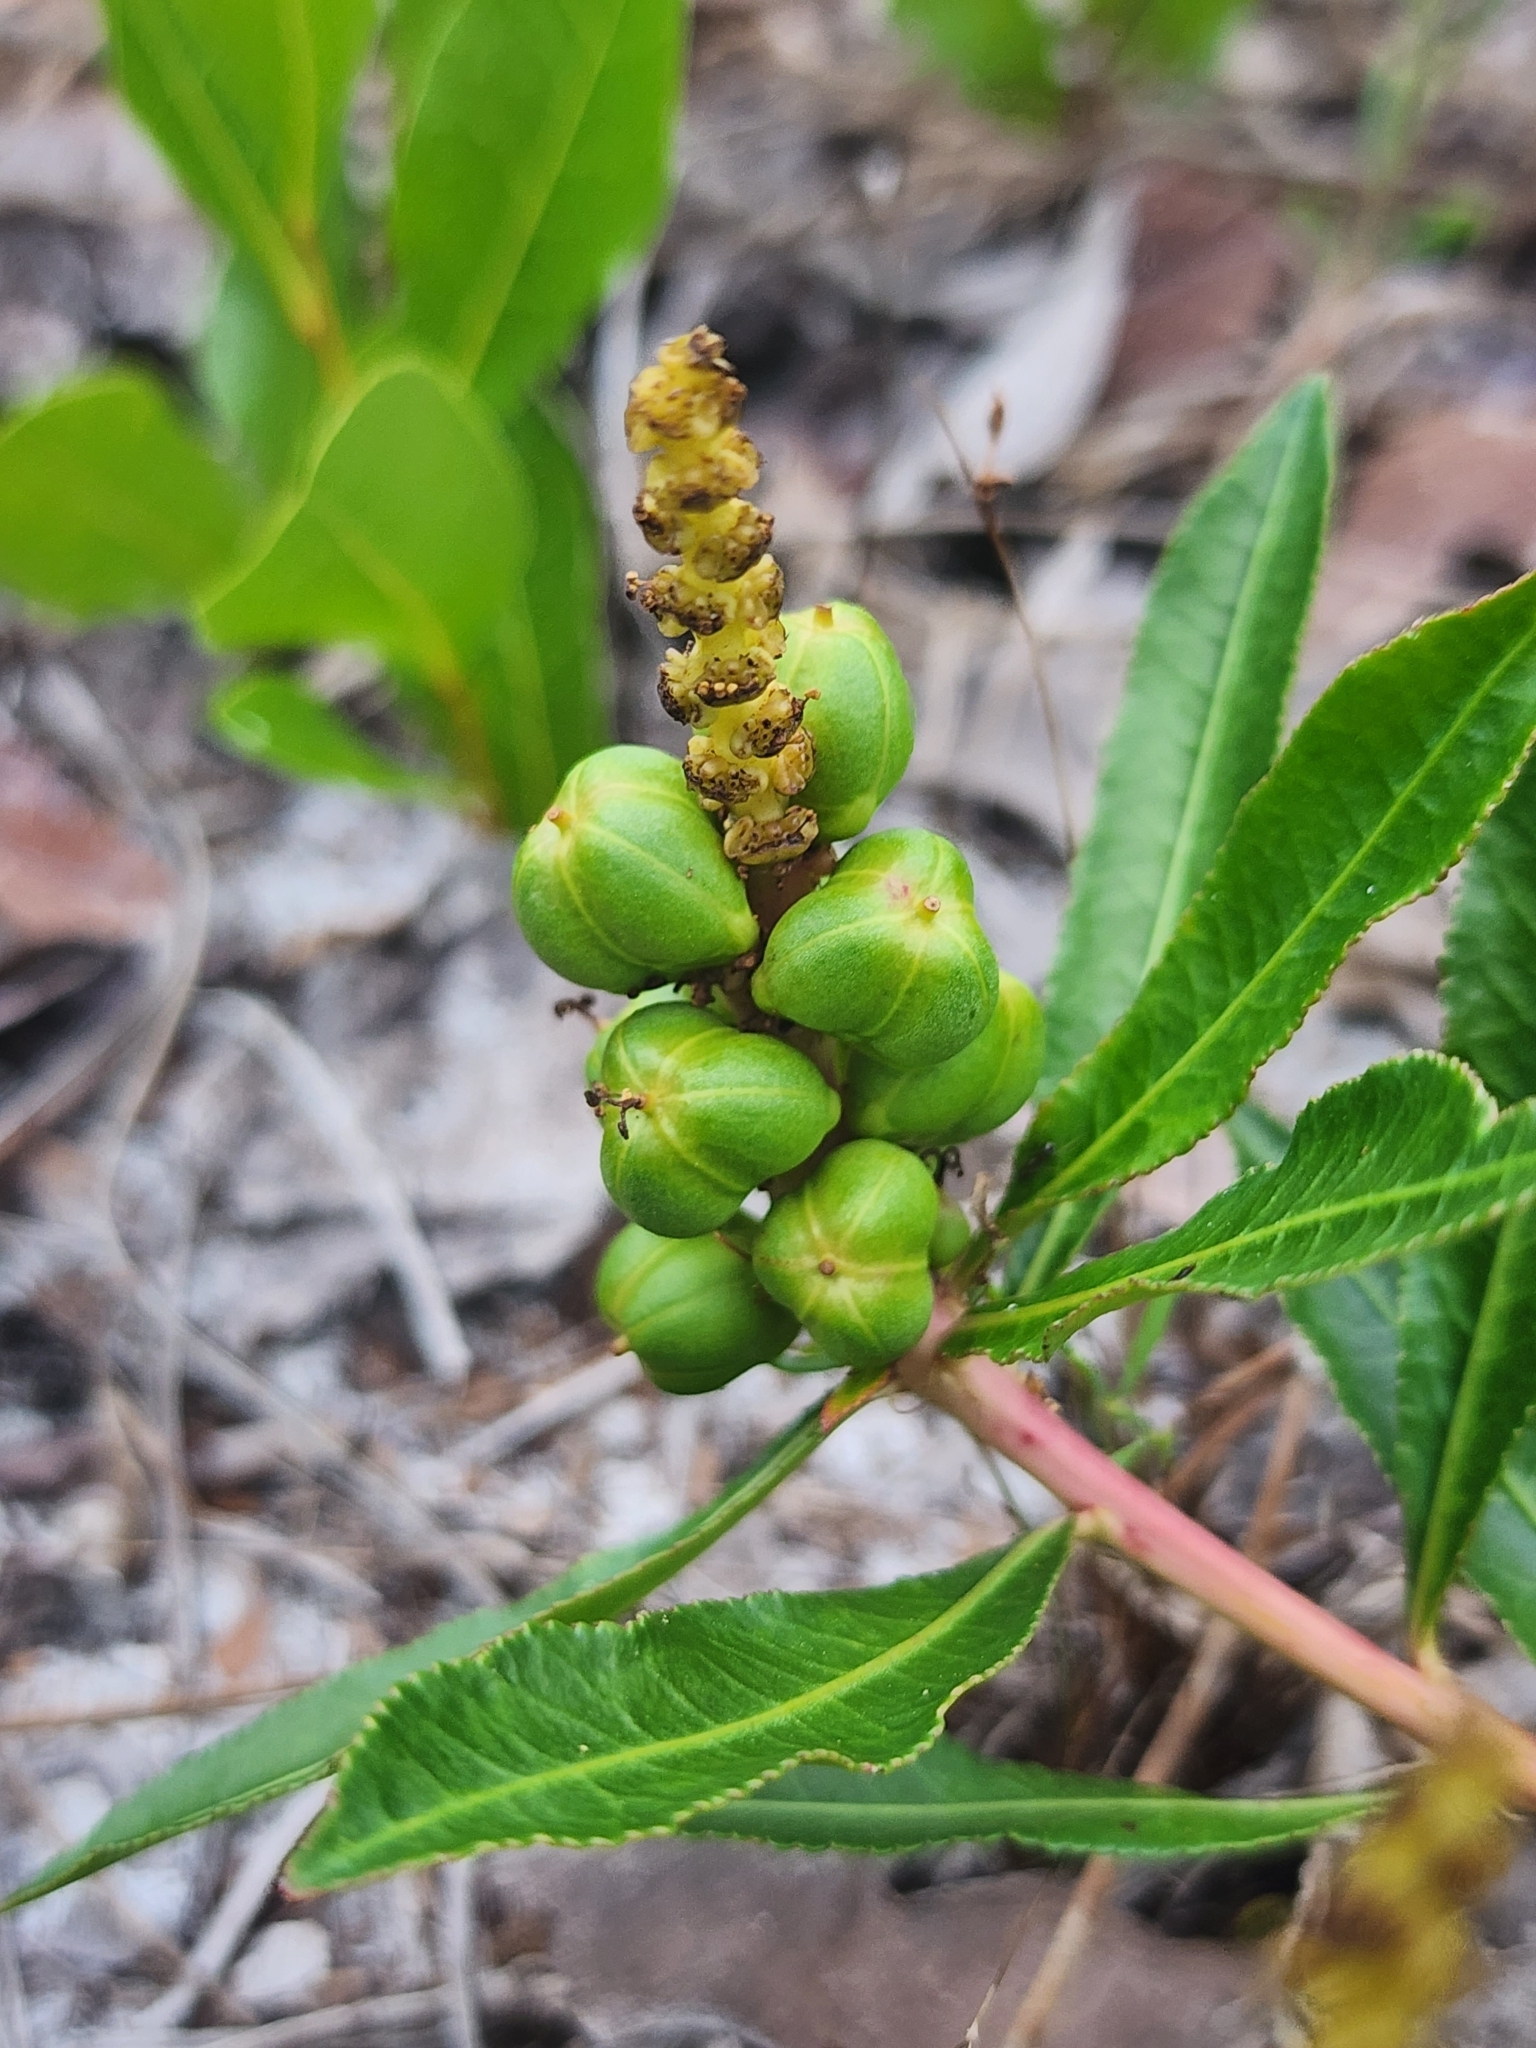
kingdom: Plantae
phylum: Tracheophyta
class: Magnoliopsida
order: Malpighiales
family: Euphorbiaceae
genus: Stillingia
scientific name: Stillingia sylvatica
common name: Queen's-delight
